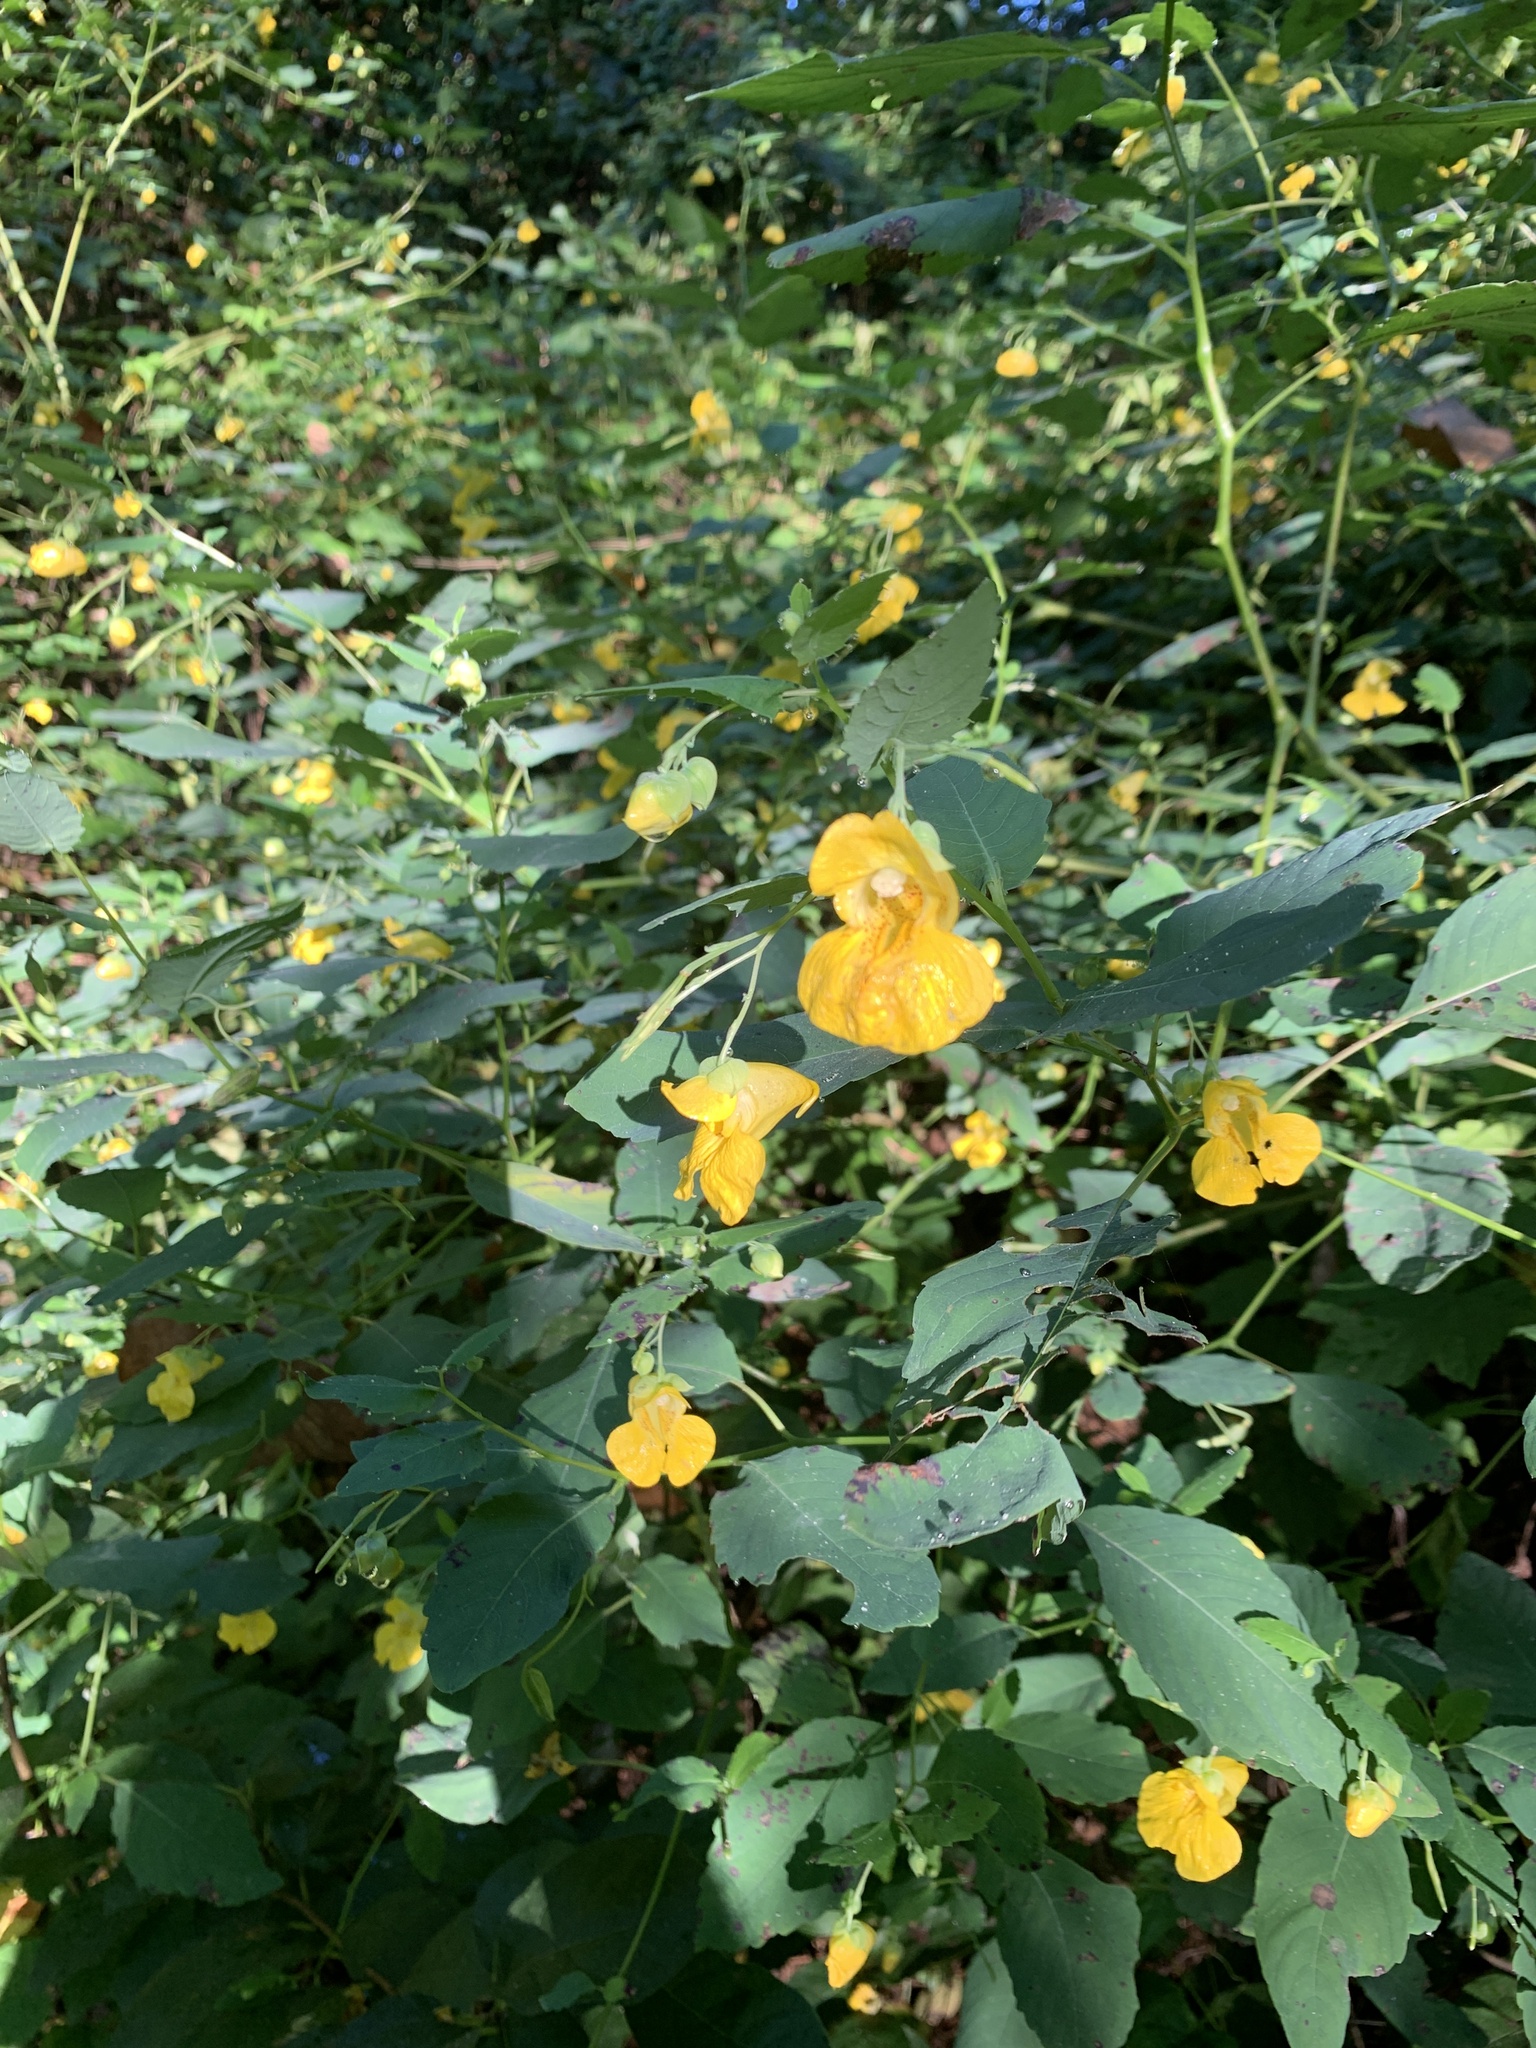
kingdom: Plantae
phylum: Tracheophyta
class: Magnoliopsida
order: Ericales
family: Balsaminaceae
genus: Impatiens
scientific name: Impatiens pallida
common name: Pale snapweed
